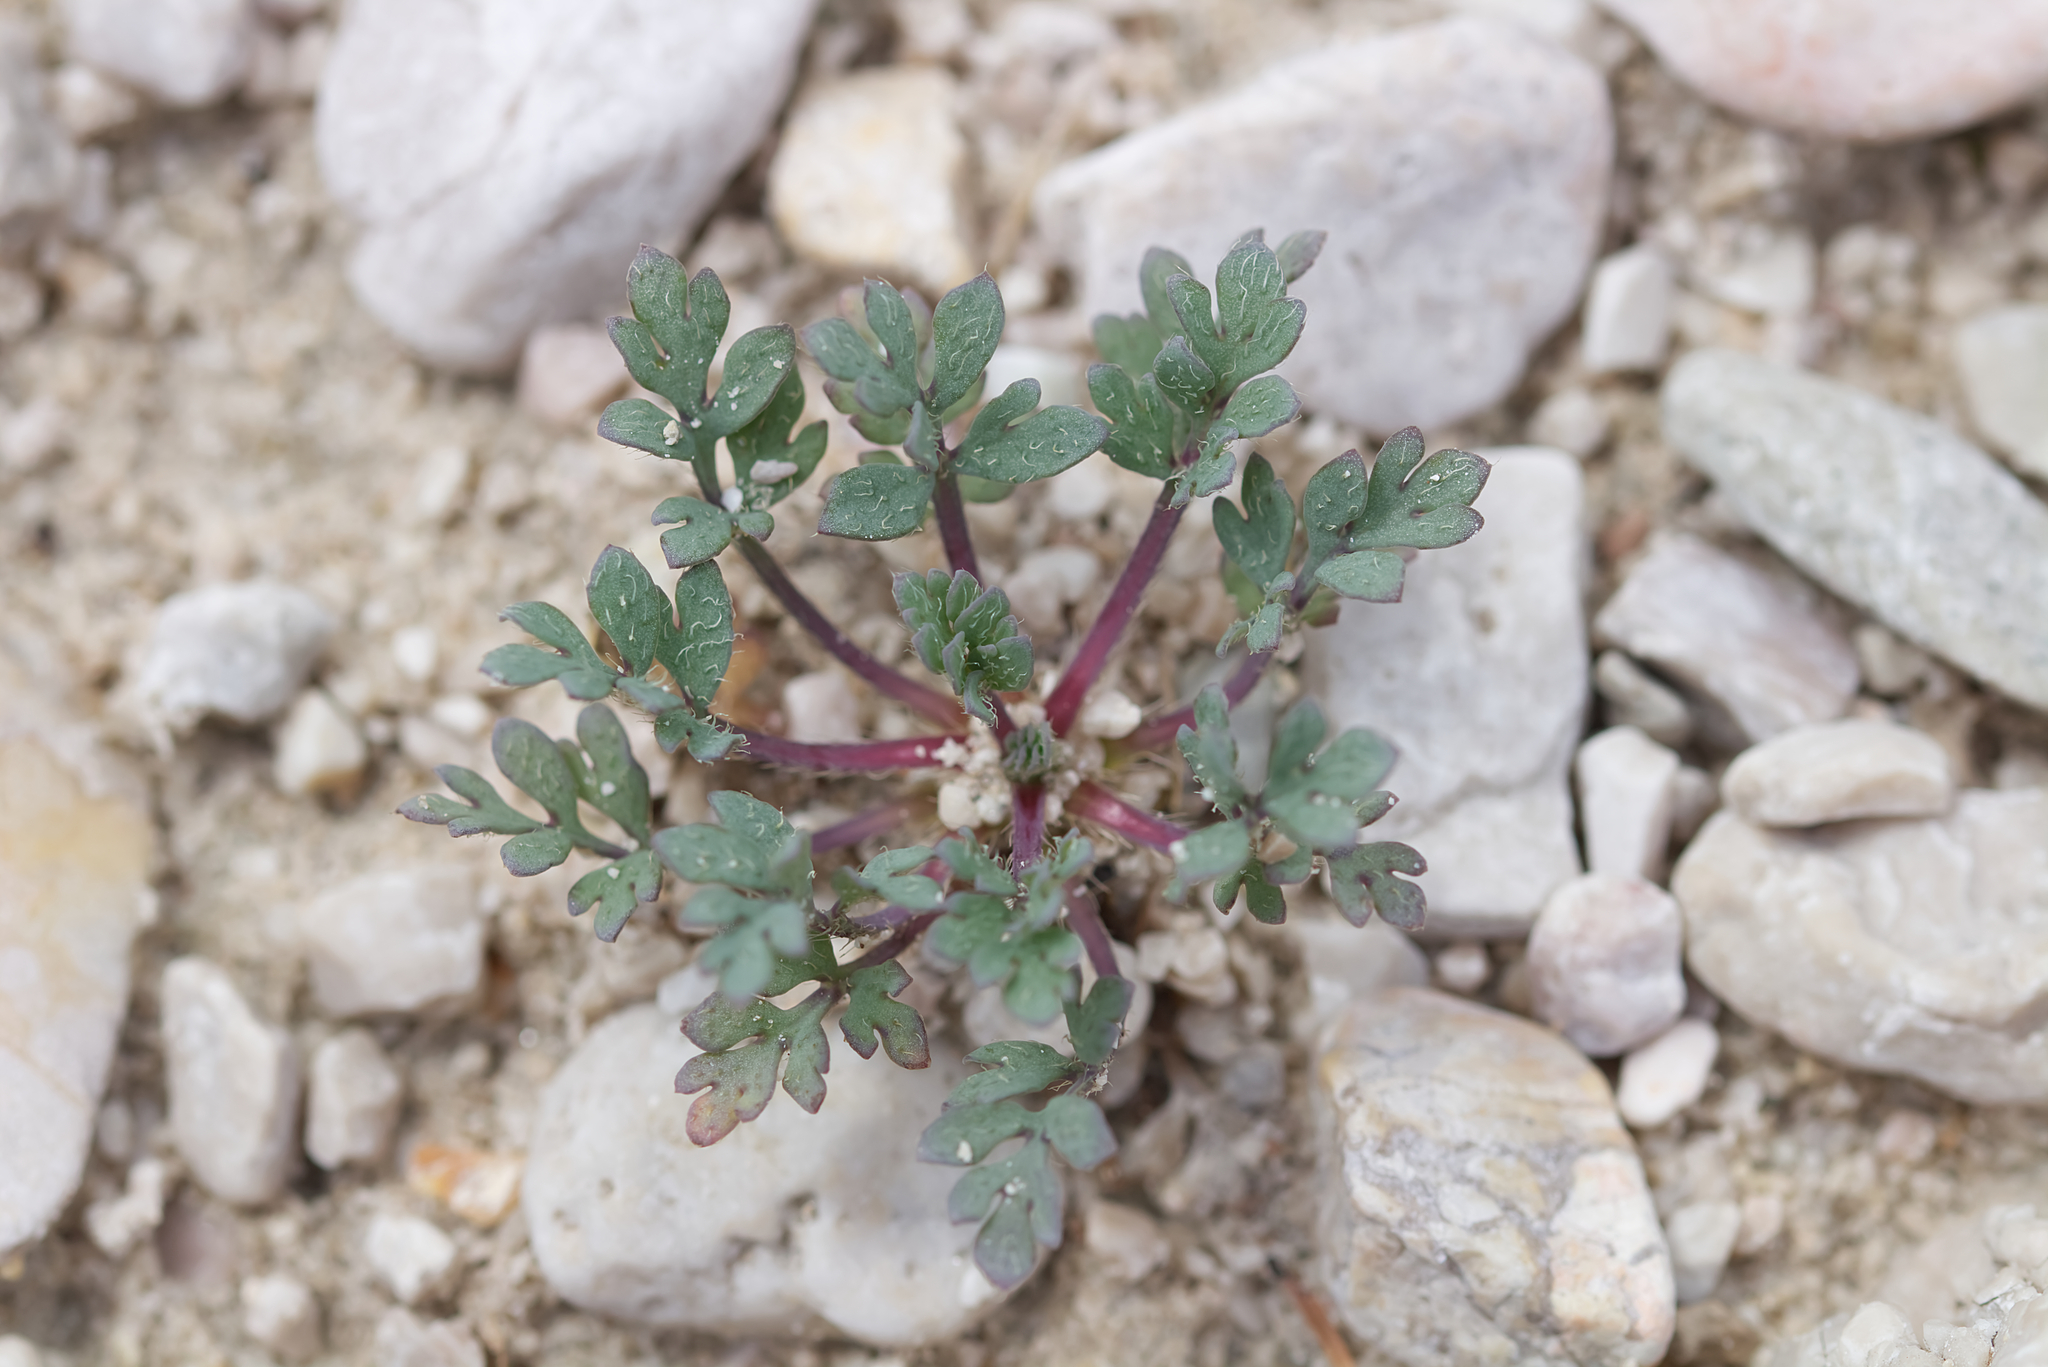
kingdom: Plantae
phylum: Tracheophyta
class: Magnoliopsida
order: Ranunculales
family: Papaveraceae
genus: Papaver
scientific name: Papaver alpinum
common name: Austrian poppy
